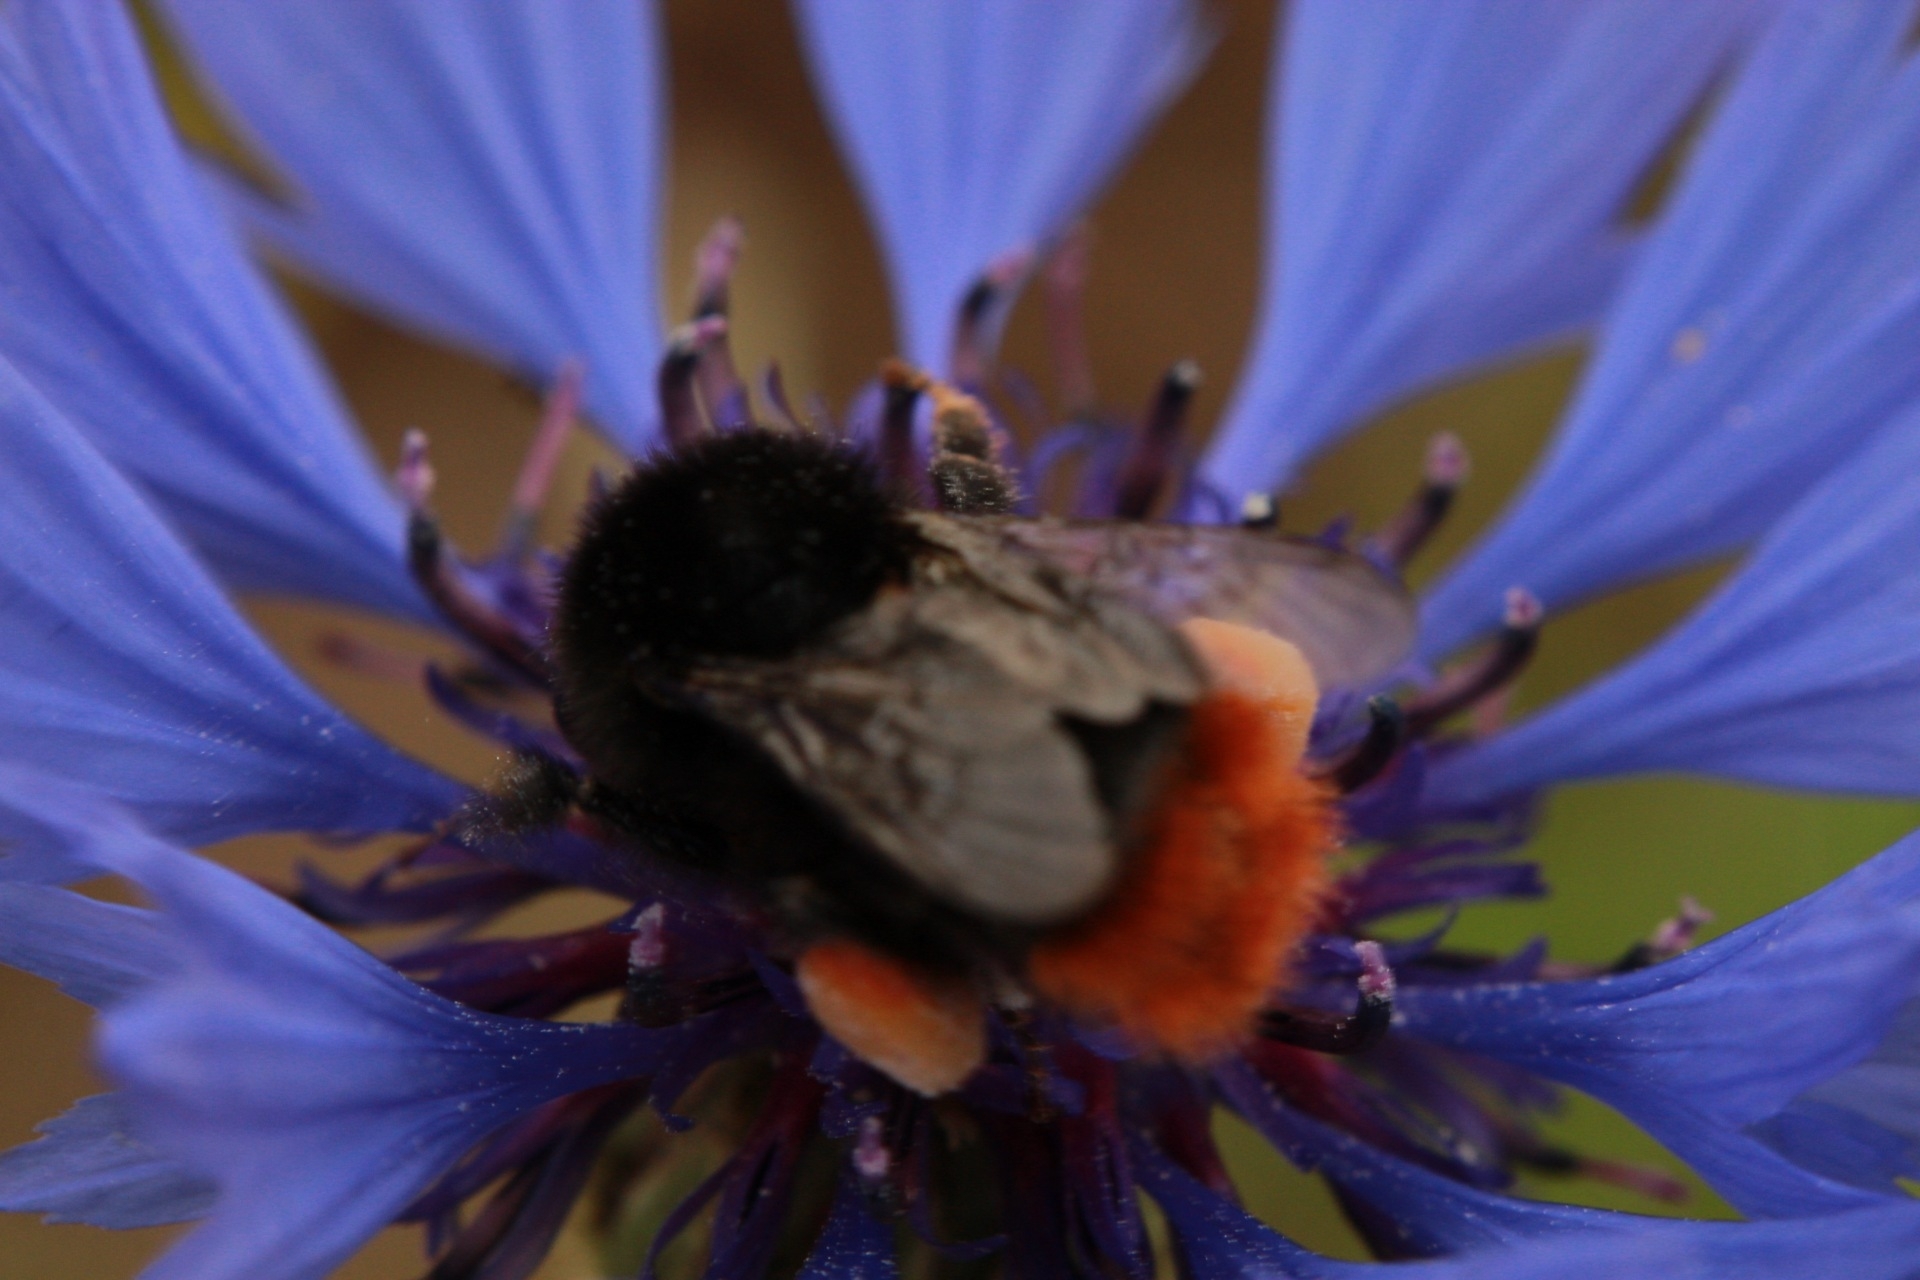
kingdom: Animalia
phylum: Arthropoda
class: Insecta
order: Hymenoptera
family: Apidae
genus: Bombus
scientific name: Bombus lapidarius
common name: Large red-tailed humble-bee
